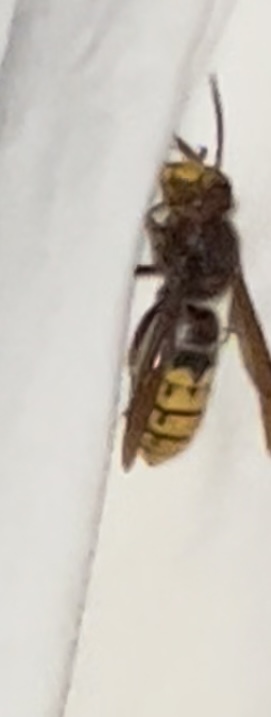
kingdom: Animalia
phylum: Arthropoda
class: Insecta
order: Hymenoptera
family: Vespidae
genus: Vespa
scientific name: Vespa crabro
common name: Hornet
